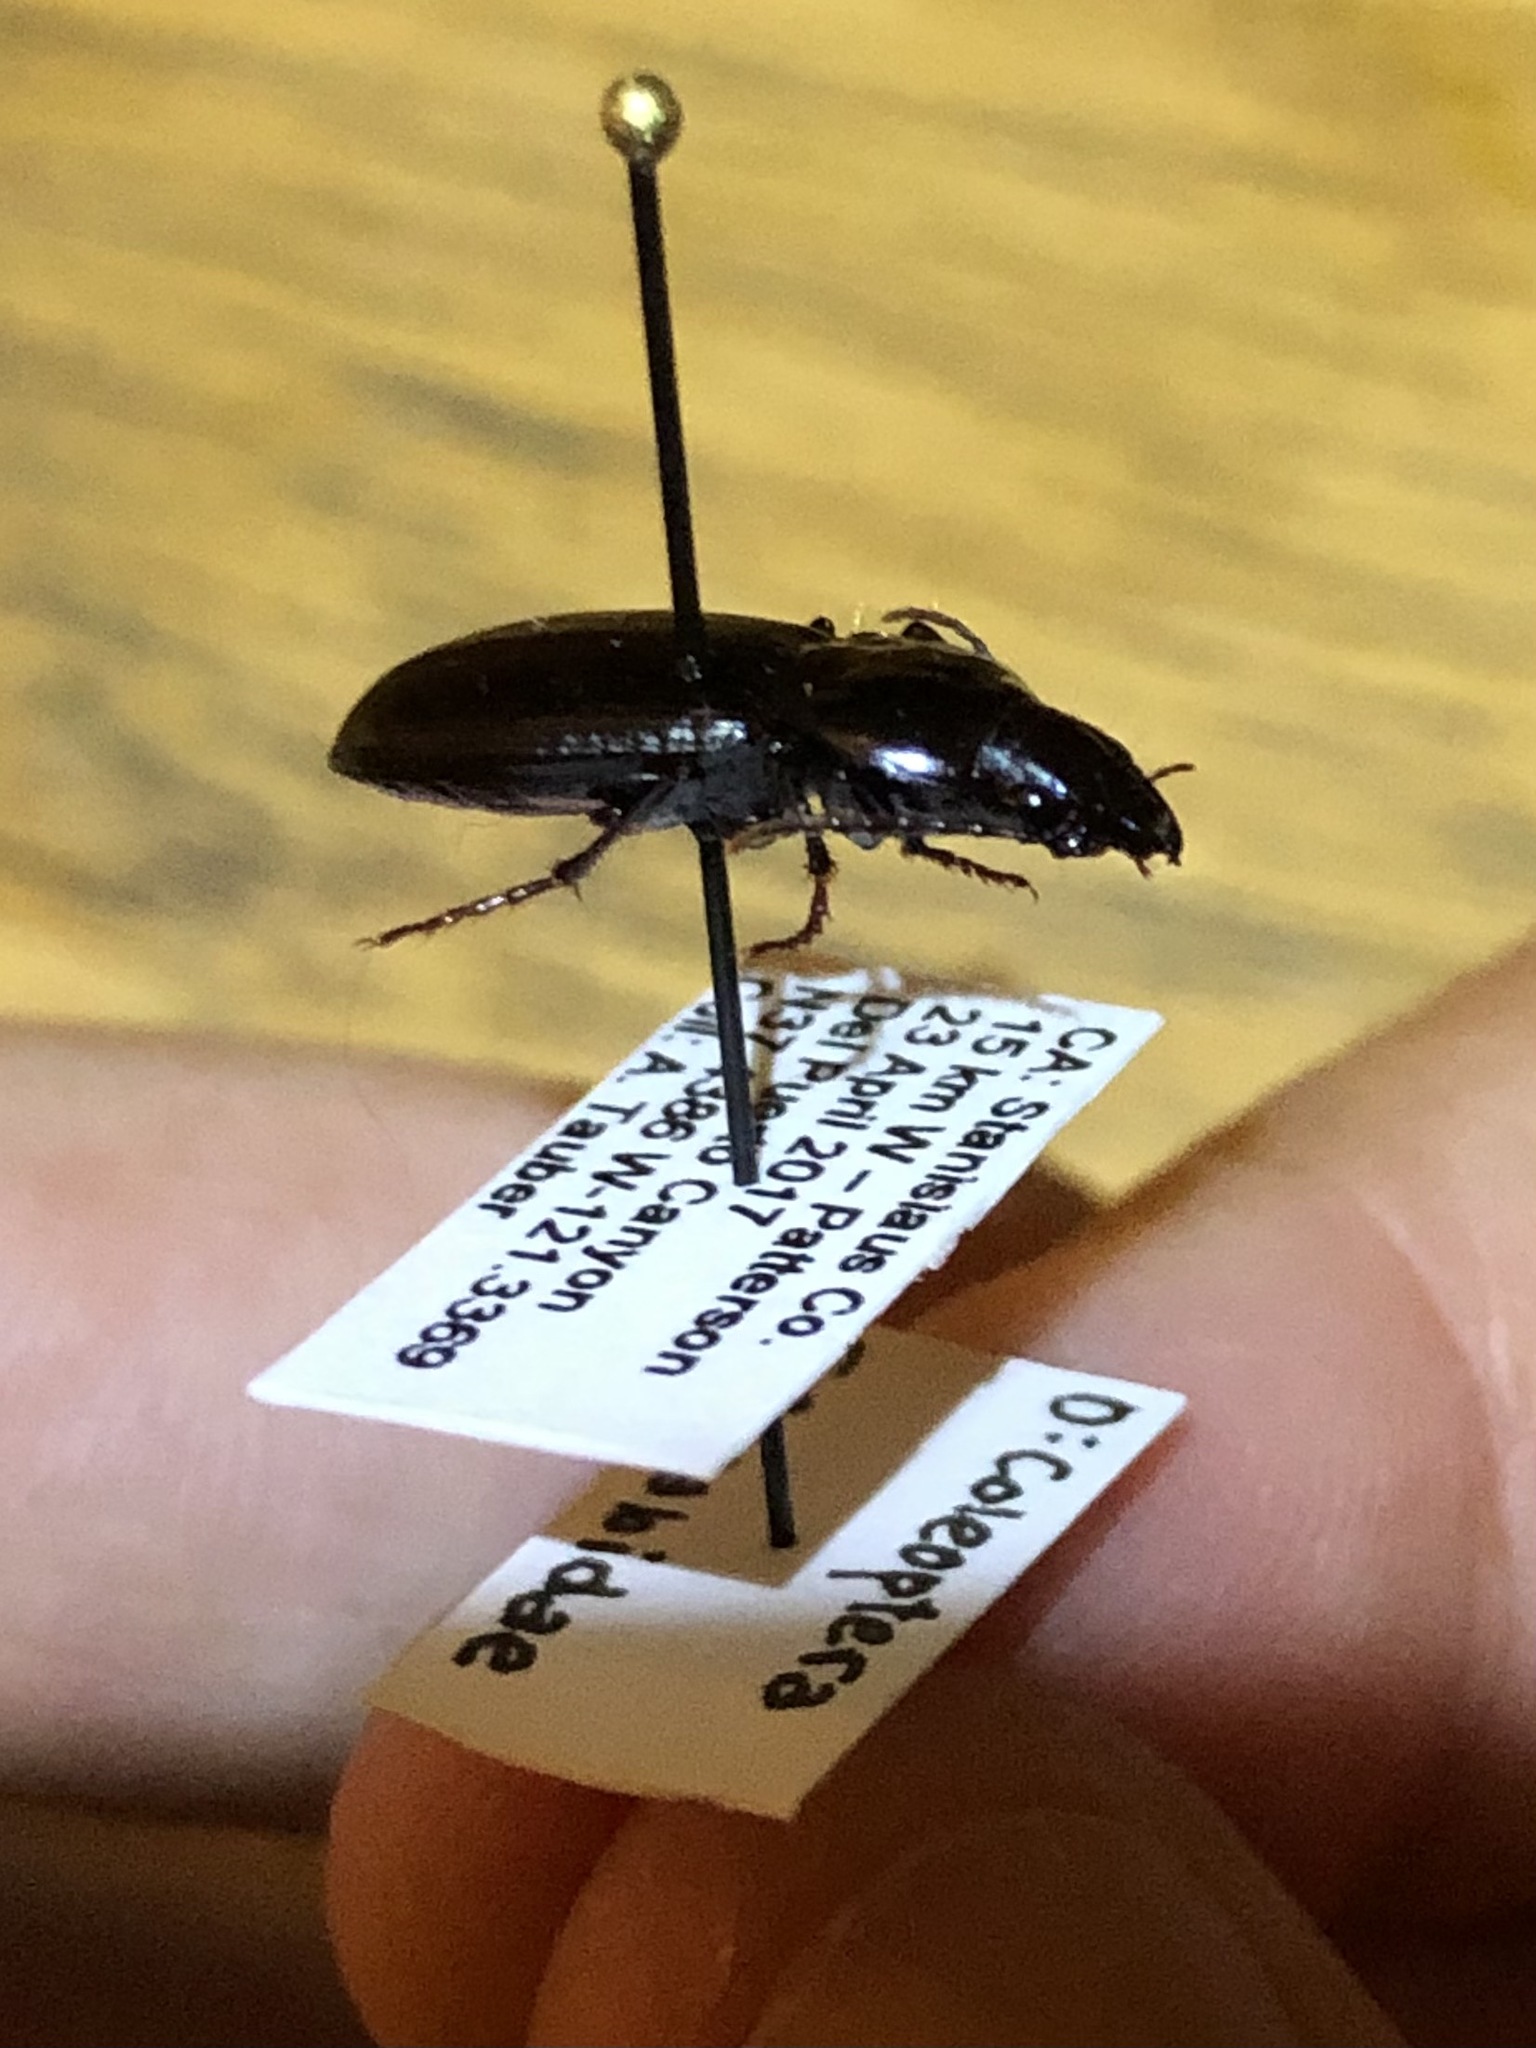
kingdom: Animalia
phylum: Arthropoda
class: Insecta
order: Coleoptera
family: Carabidae
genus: Tanystoma
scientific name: Tanystoma maculicolle
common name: Tule beetle
